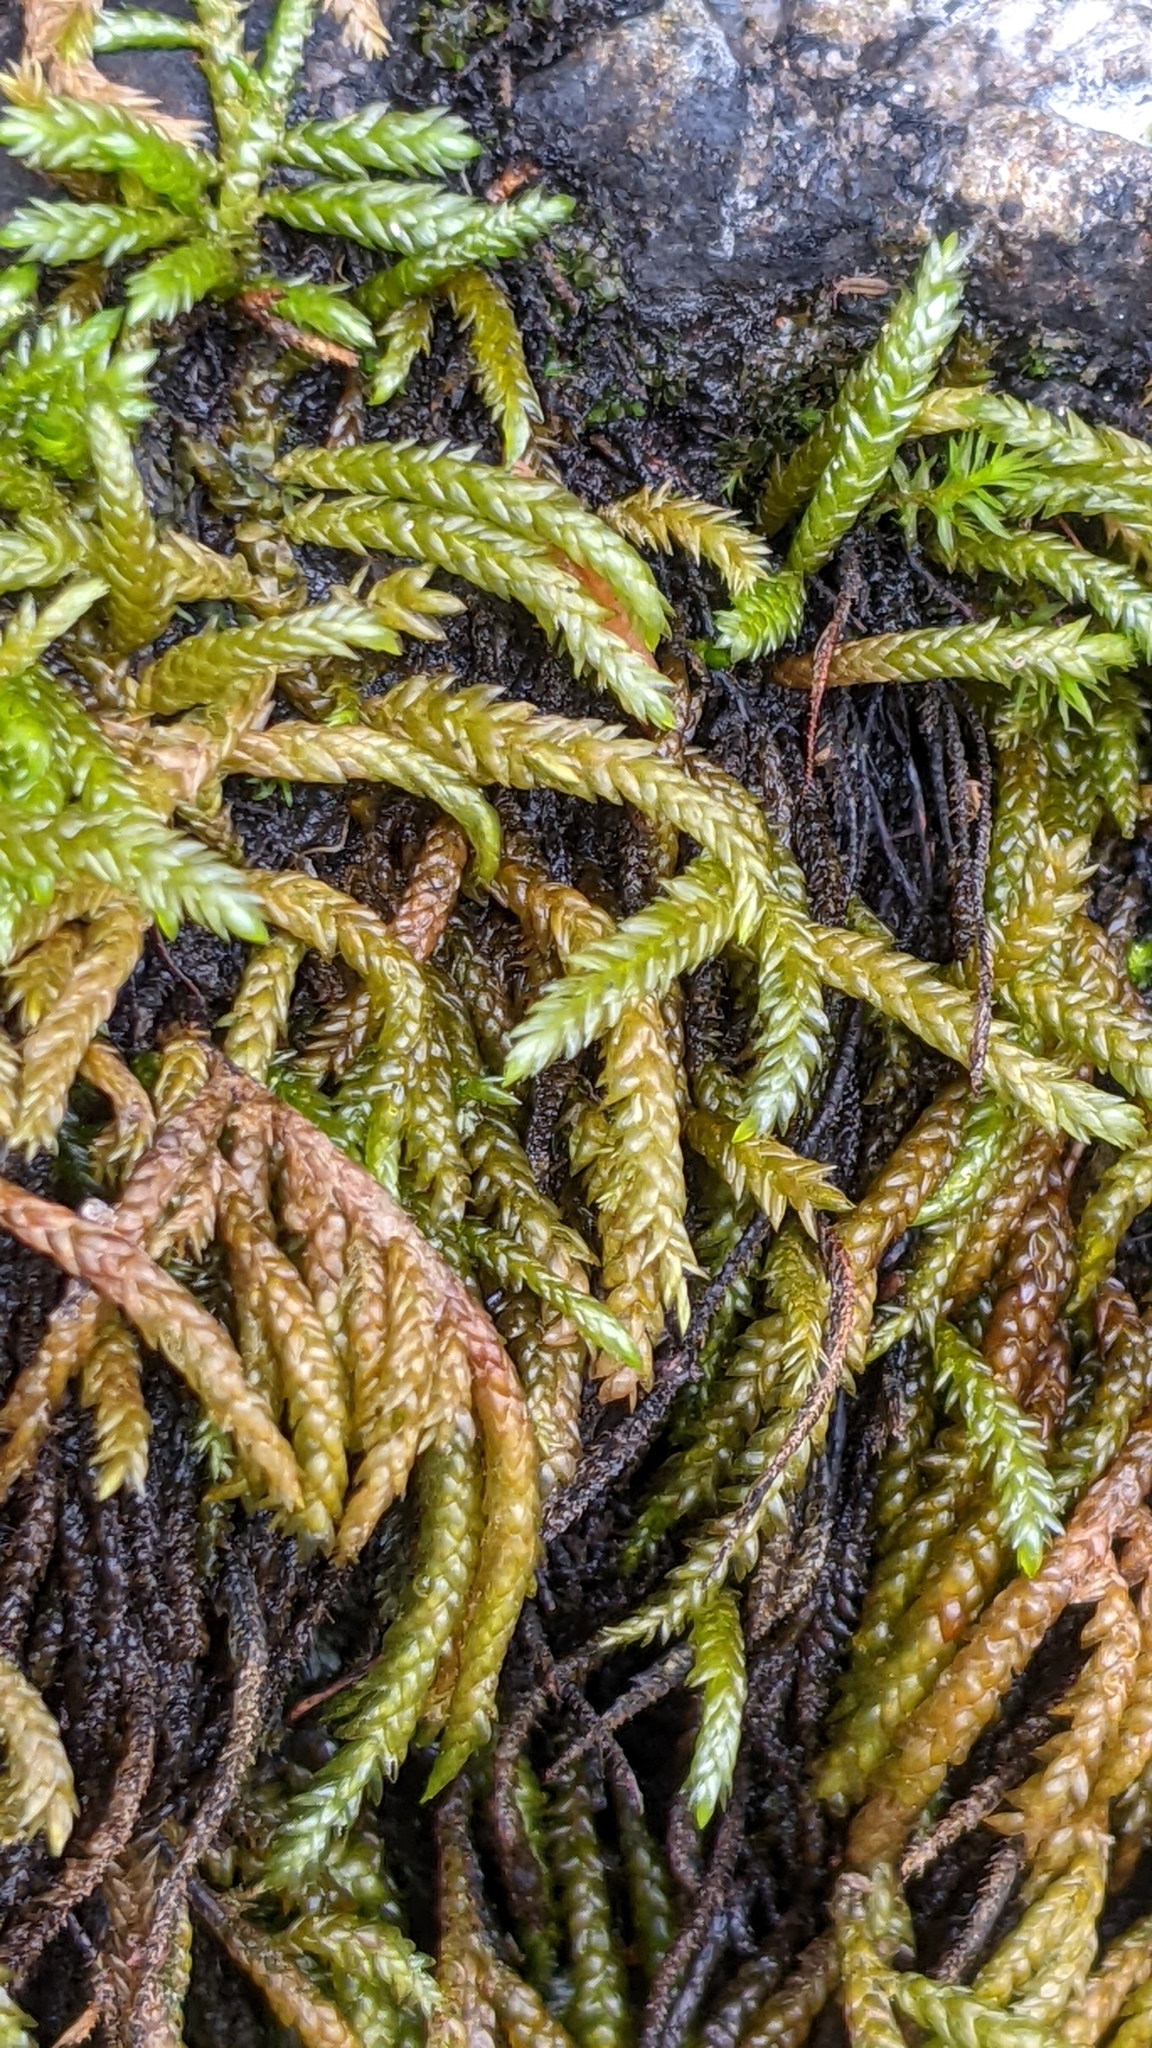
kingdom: Plantae
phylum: Bryophyta
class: Bryopsida
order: Hypnales
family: Brachytheciaceae
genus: Scleropodium
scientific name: Scleropodium cespitans
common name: Appleyard's feather-moss
